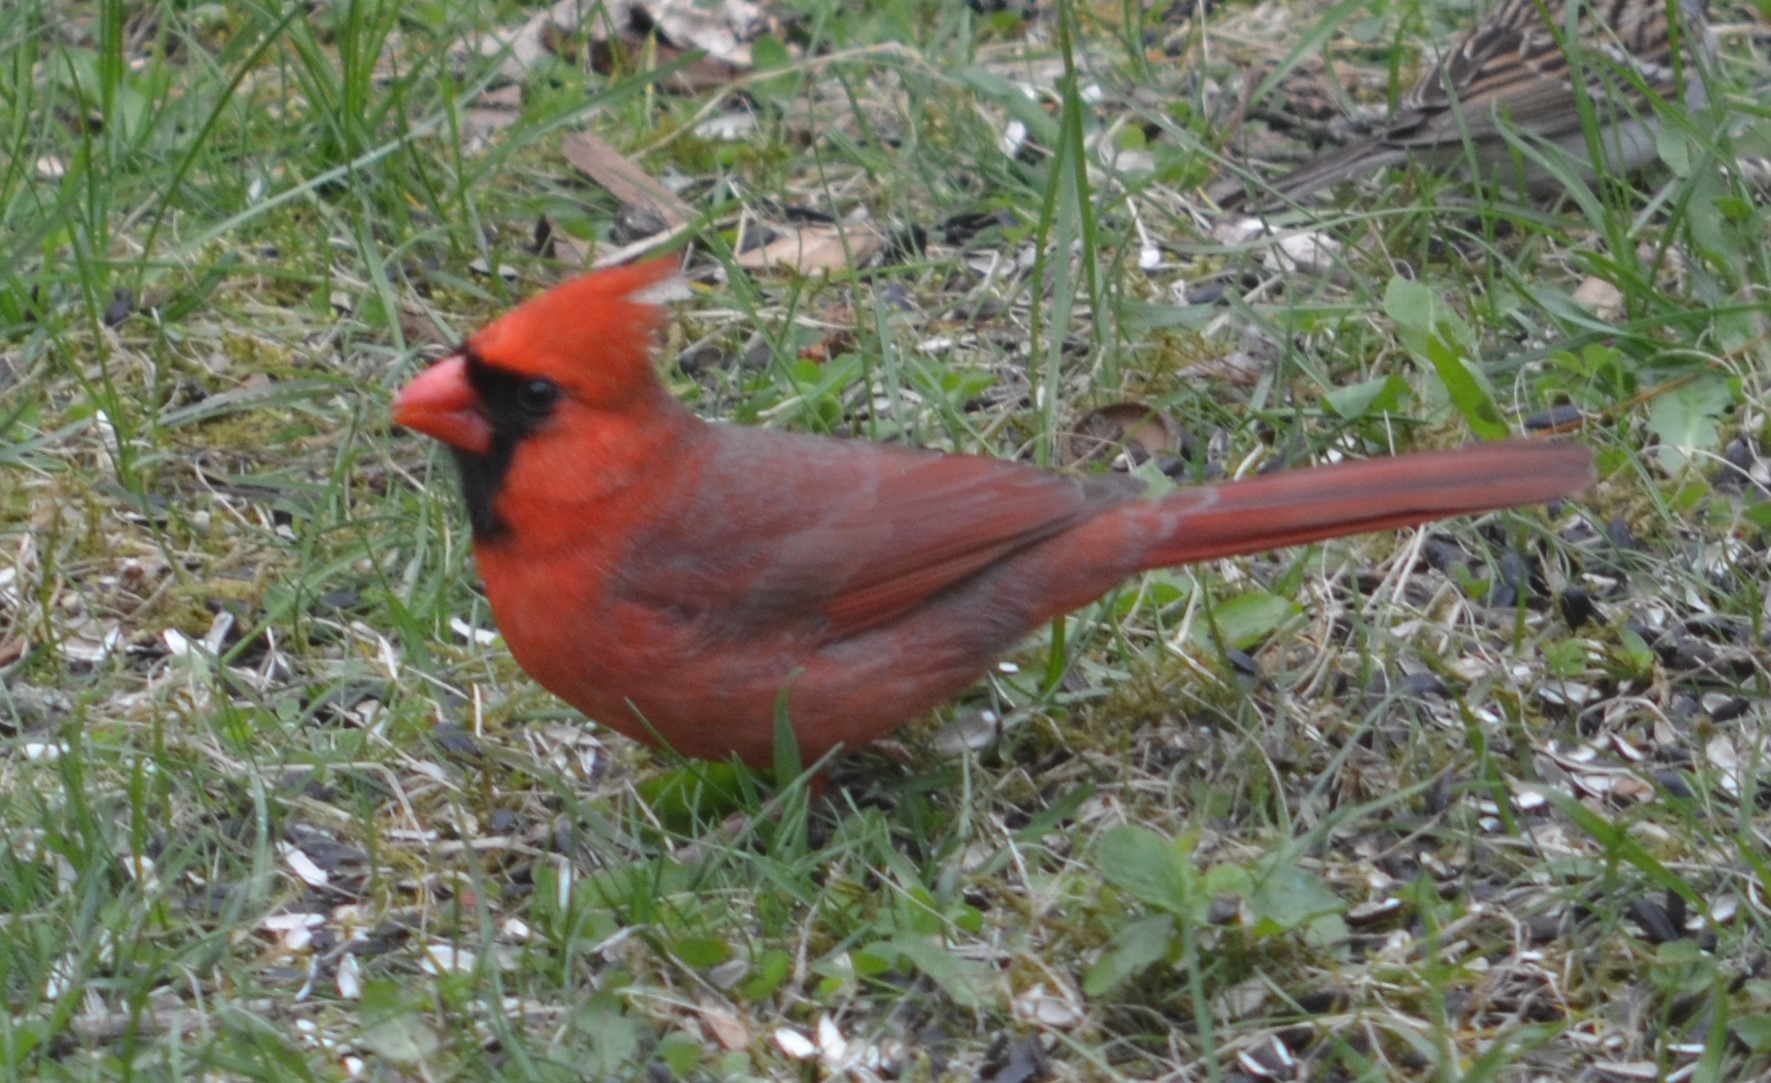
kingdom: Animalia
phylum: Chordata
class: Aves
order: Passeriformes
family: Cardinalidae
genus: Cardinalis
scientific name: Cardinalis cardinalis
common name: Northern cardinal
